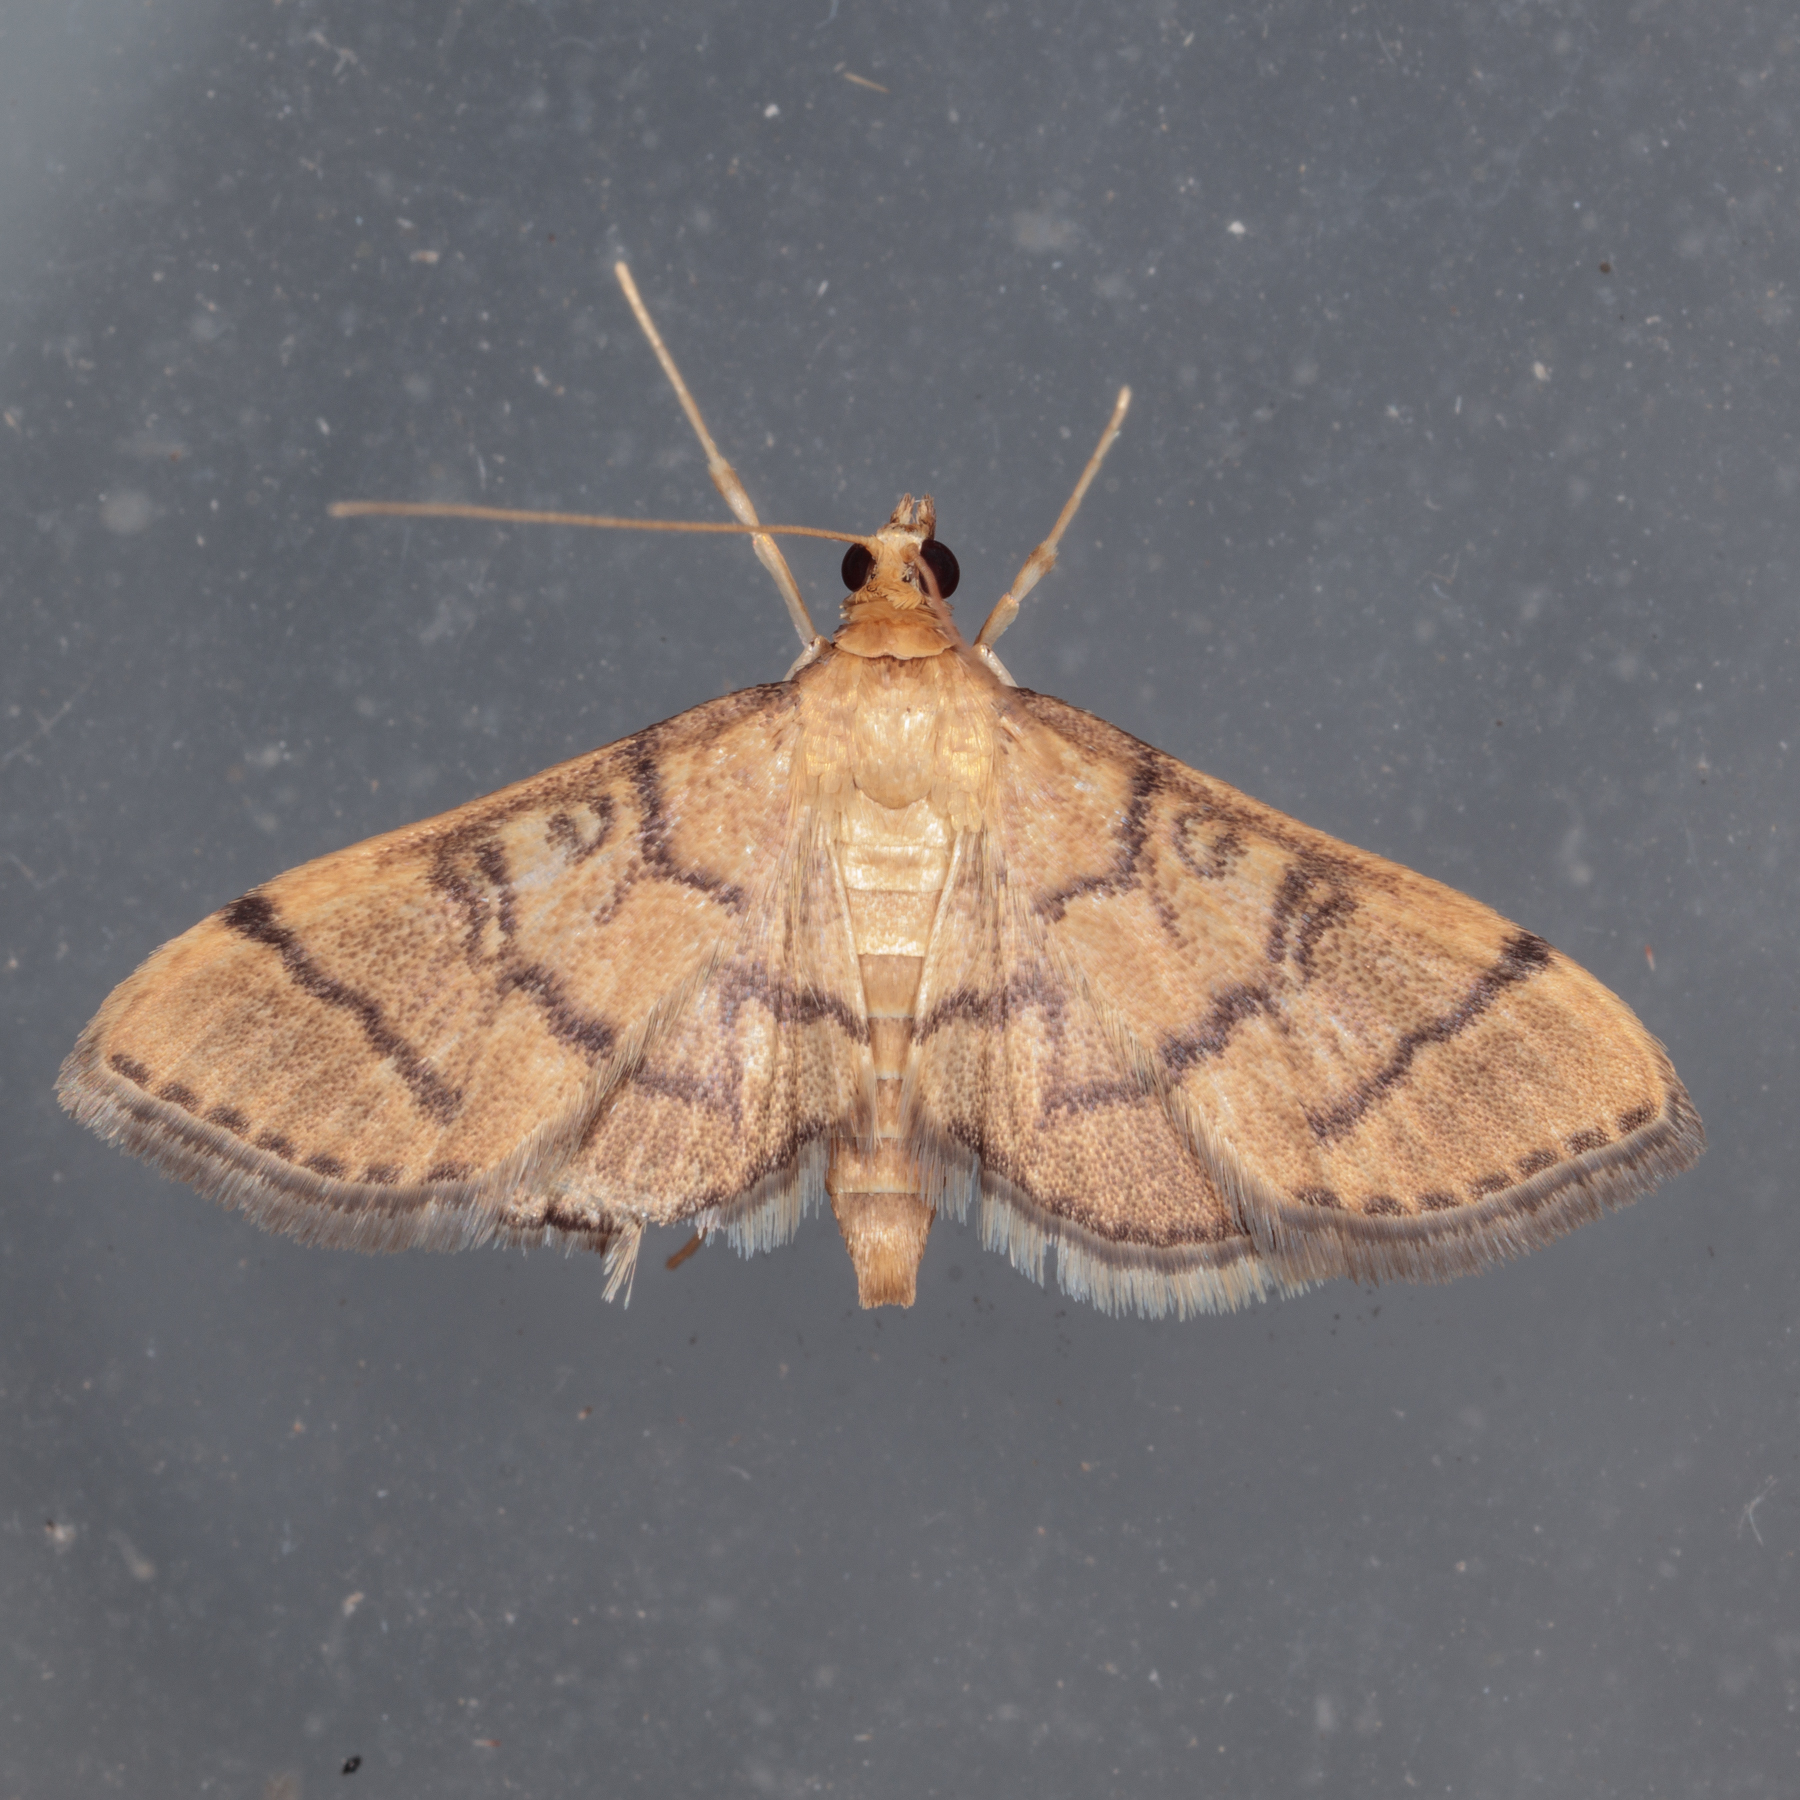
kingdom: Animalia
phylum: Arthropoda
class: Insecta
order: Lepidoptera
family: Crambidae
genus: Lamprosema
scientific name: Lamprosema Blepharomastix ranalis
